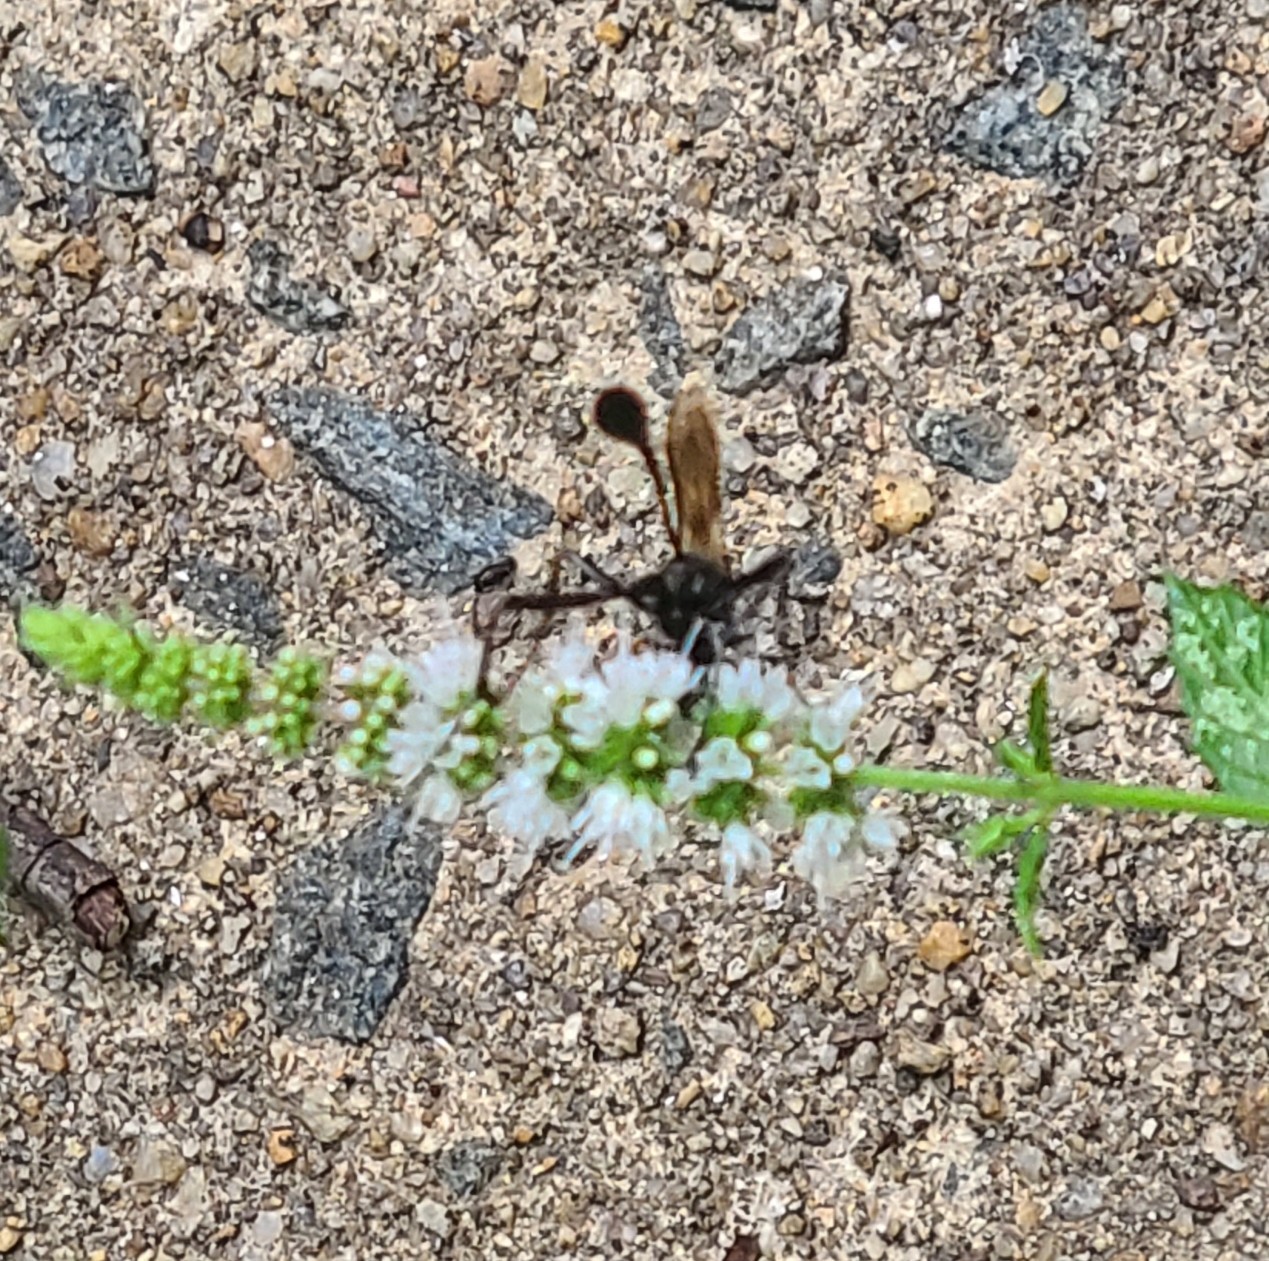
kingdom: Animalia
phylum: Arthropoda
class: Insecta
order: Hymenoptera
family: Sphecidae
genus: Eremnophila
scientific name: Eremnophila aureonotata
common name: Gold-marked thread-waisted wasp
